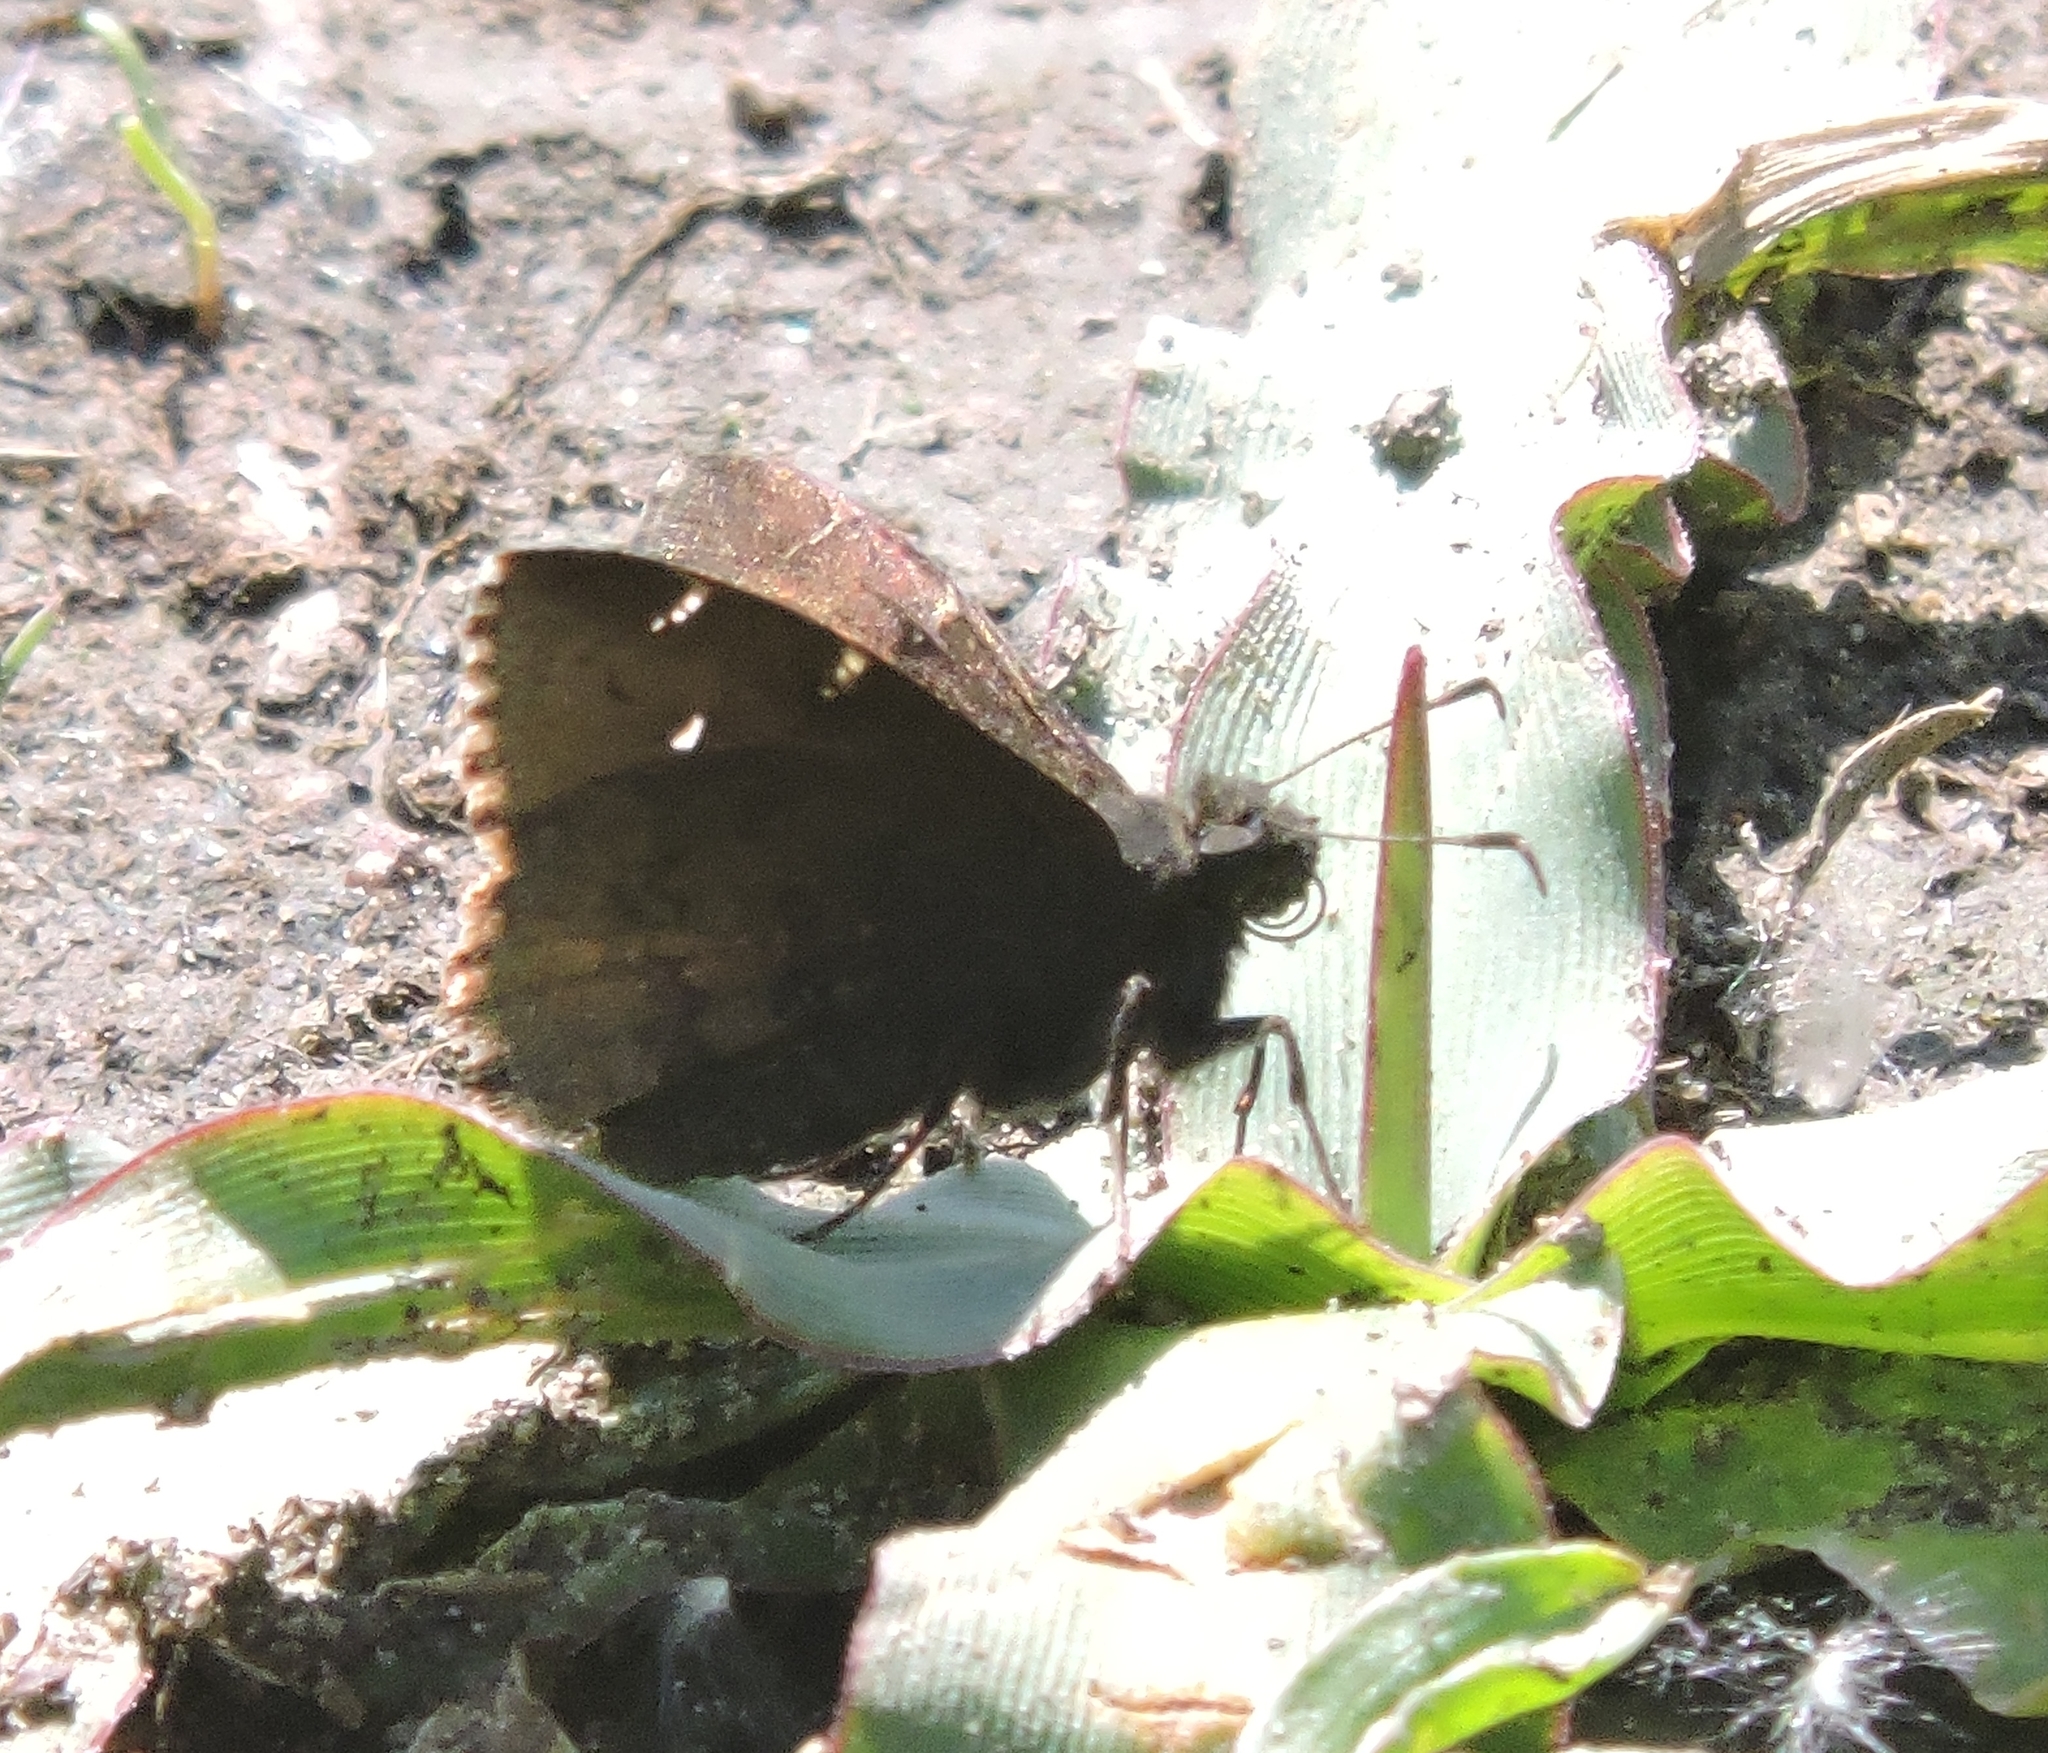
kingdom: Animalia
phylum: Arthropoda
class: Insecta
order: Lepidoptera
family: Hesperiidae
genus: Thorybes
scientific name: Thorybes pylades
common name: Northern cloudywing
